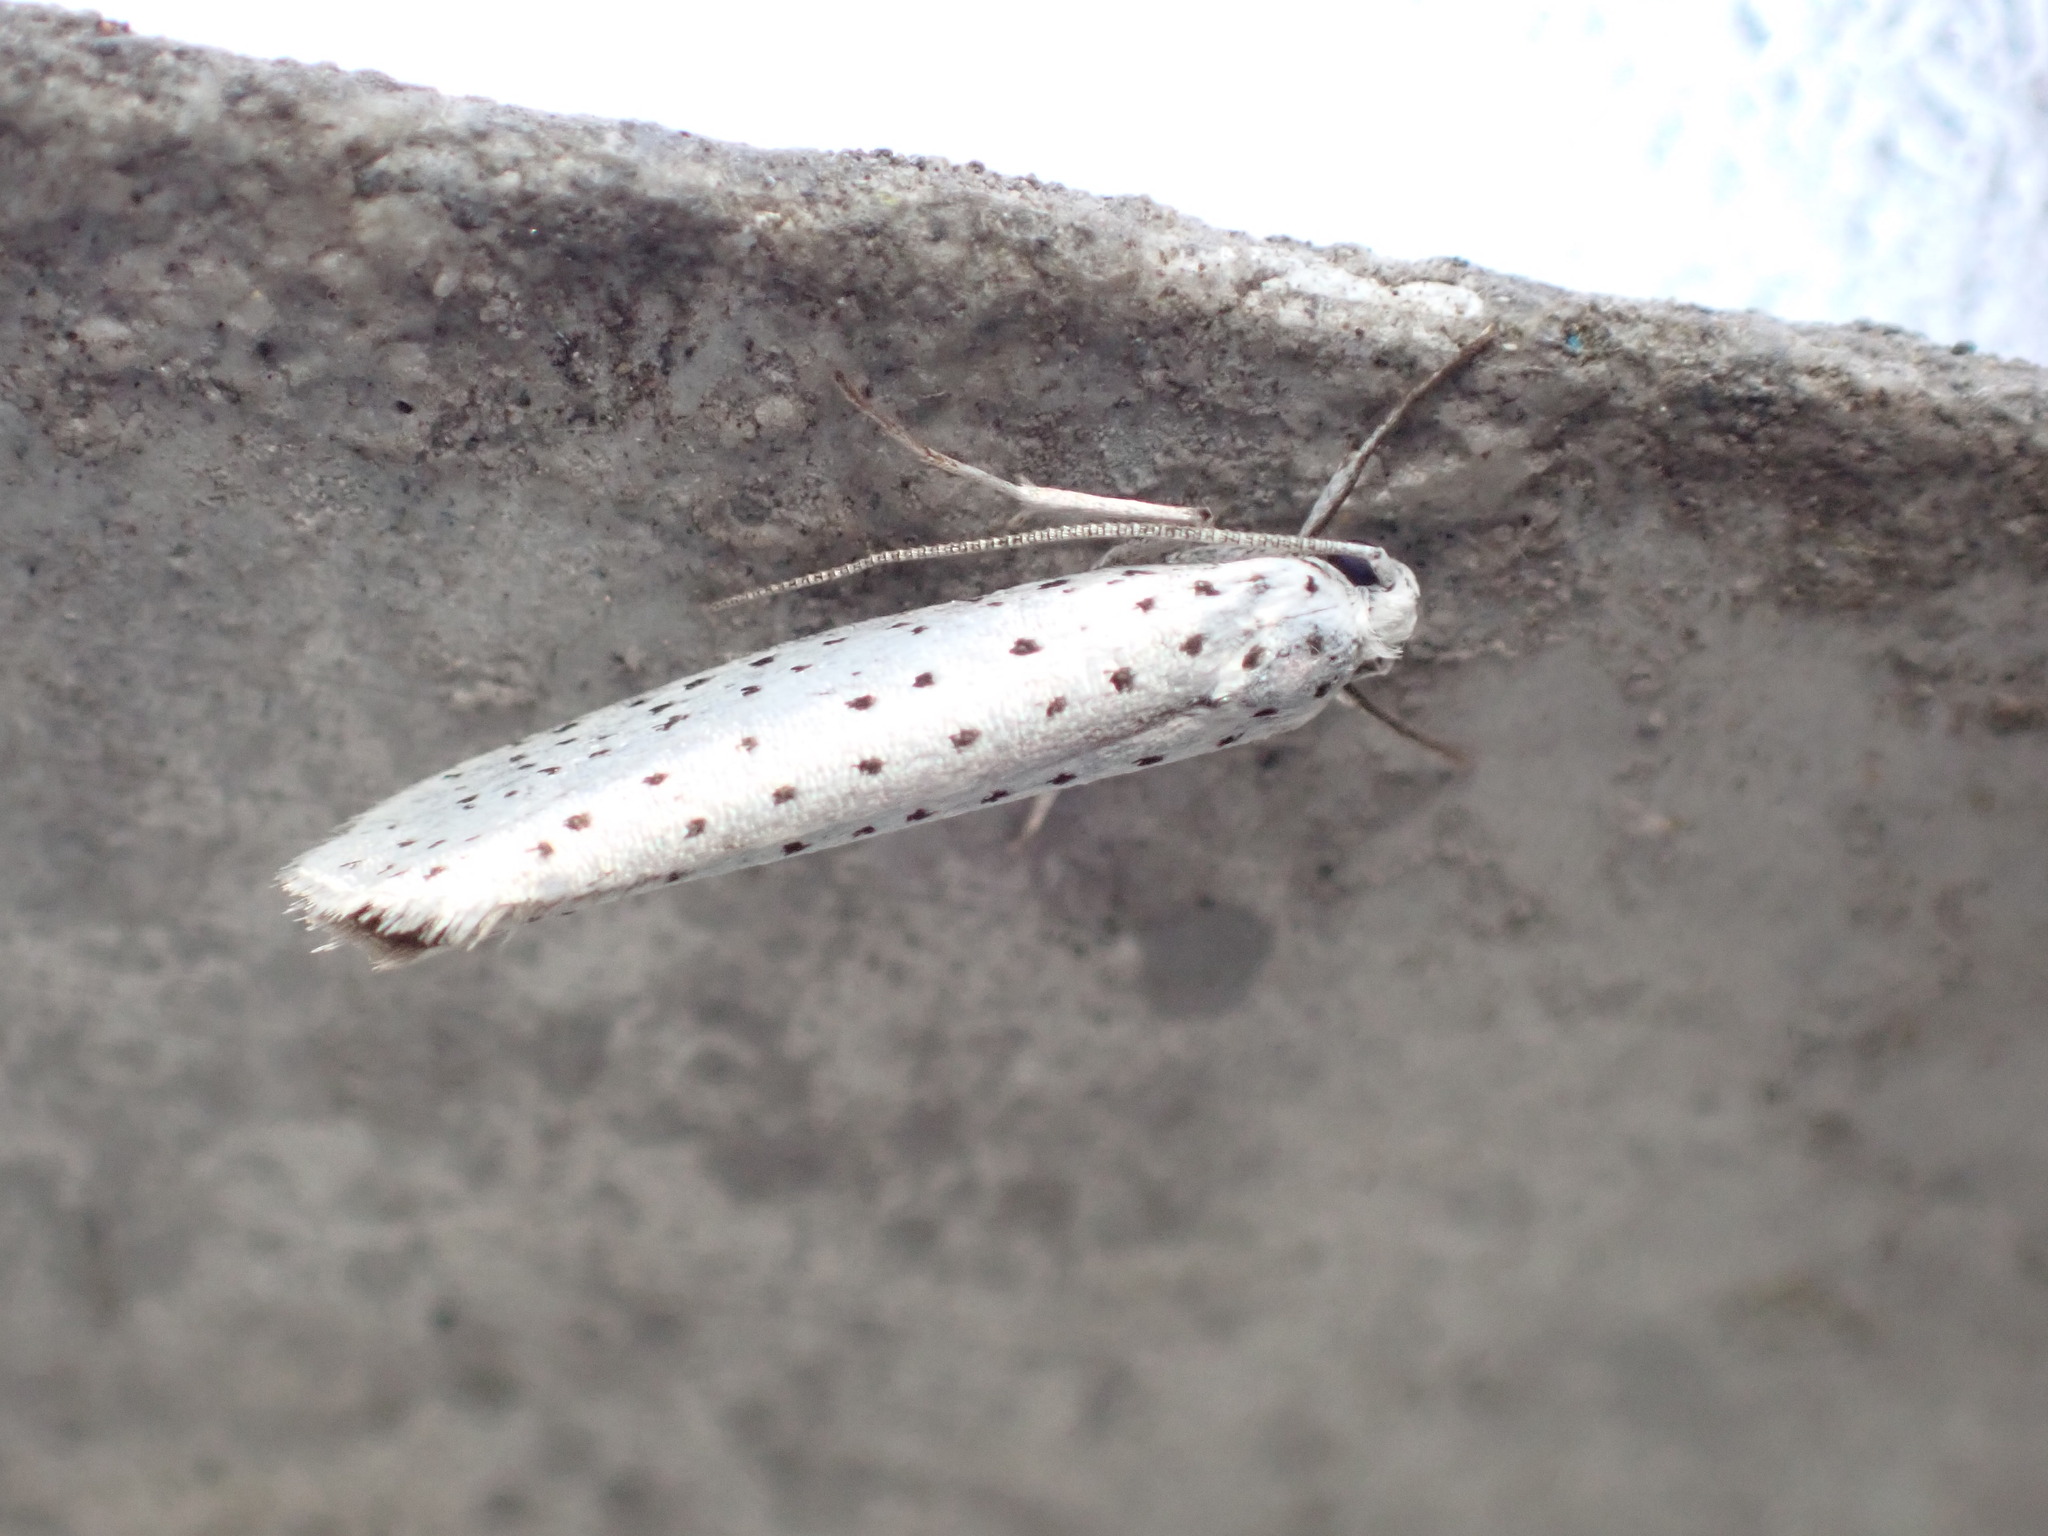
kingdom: Animalia
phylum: Arthropoda
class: Insecta
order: Lepidoptera
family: Yponomeutidae
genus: Yponomeuta
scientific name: Yponomeuta evonymella
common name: Bird-cherry ermine
